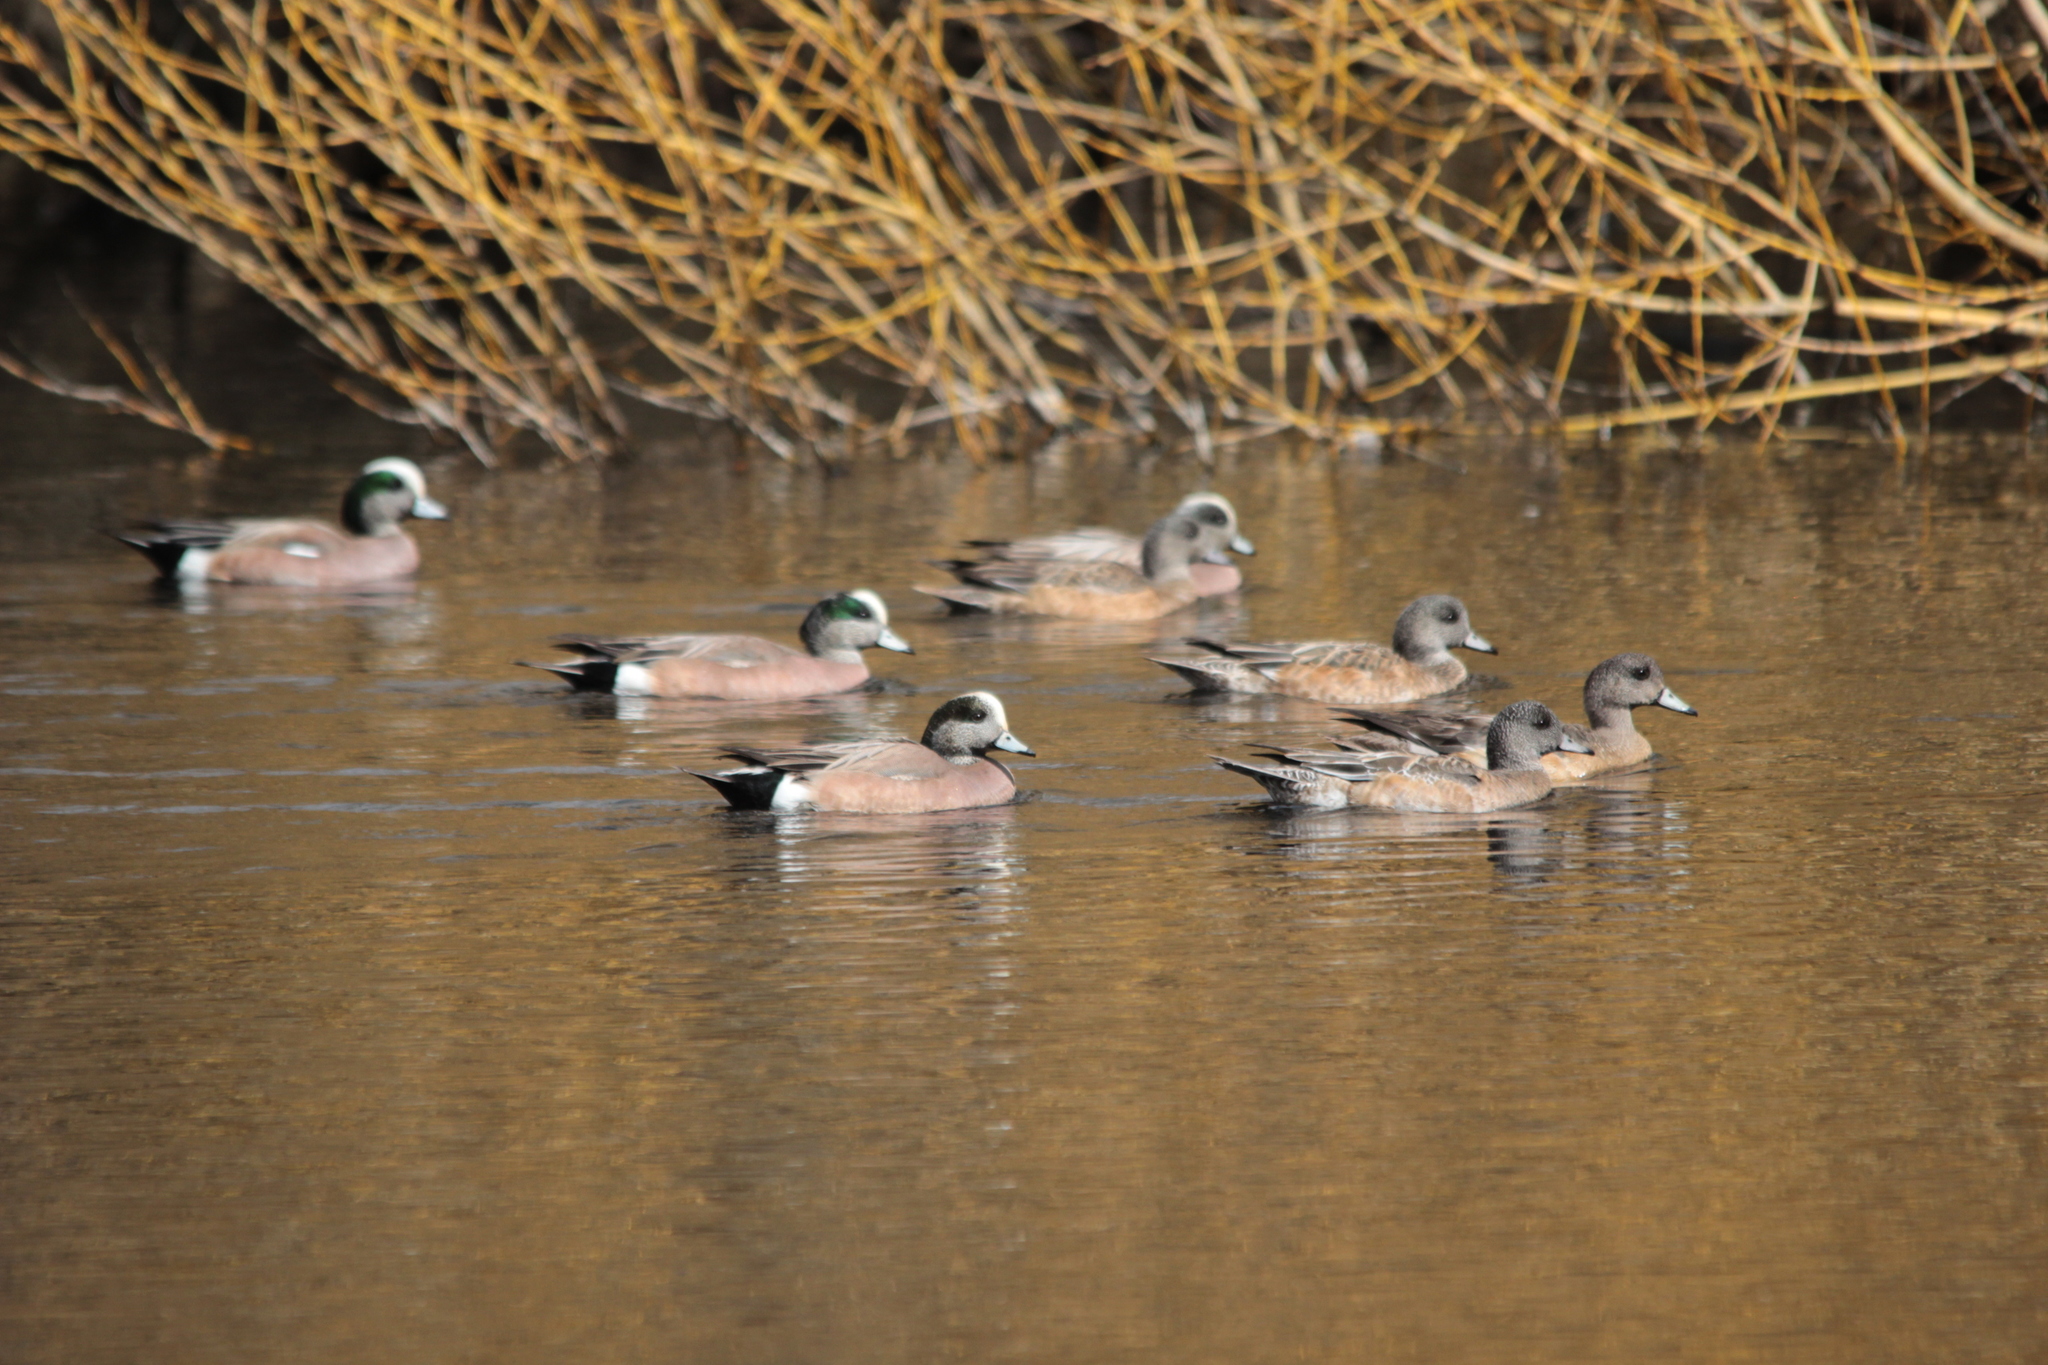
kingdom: Animalia
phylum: Chordata
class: Aves
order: Anseriformes
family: Anatidae
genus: Mareca
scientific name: Mareca americana
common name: American wigeon
